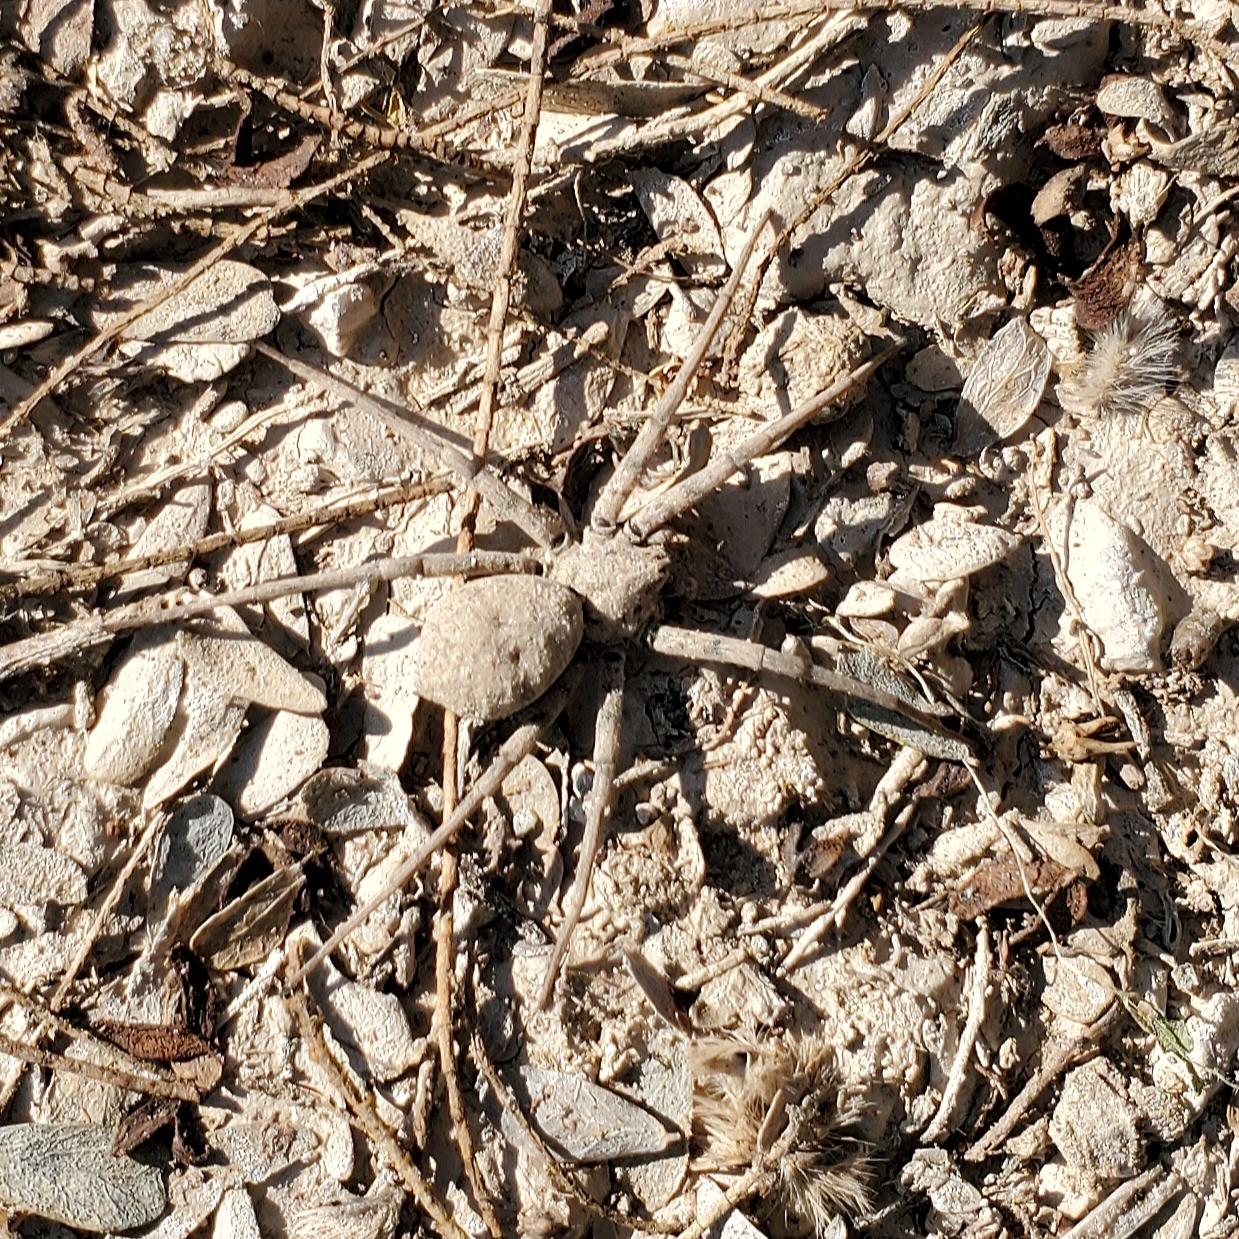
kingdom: Animalia
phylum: Arthropoda
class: Arachnida
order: Araneae
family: Homalonychidae
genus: Homalonychus
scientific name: Homalonychus theologus
